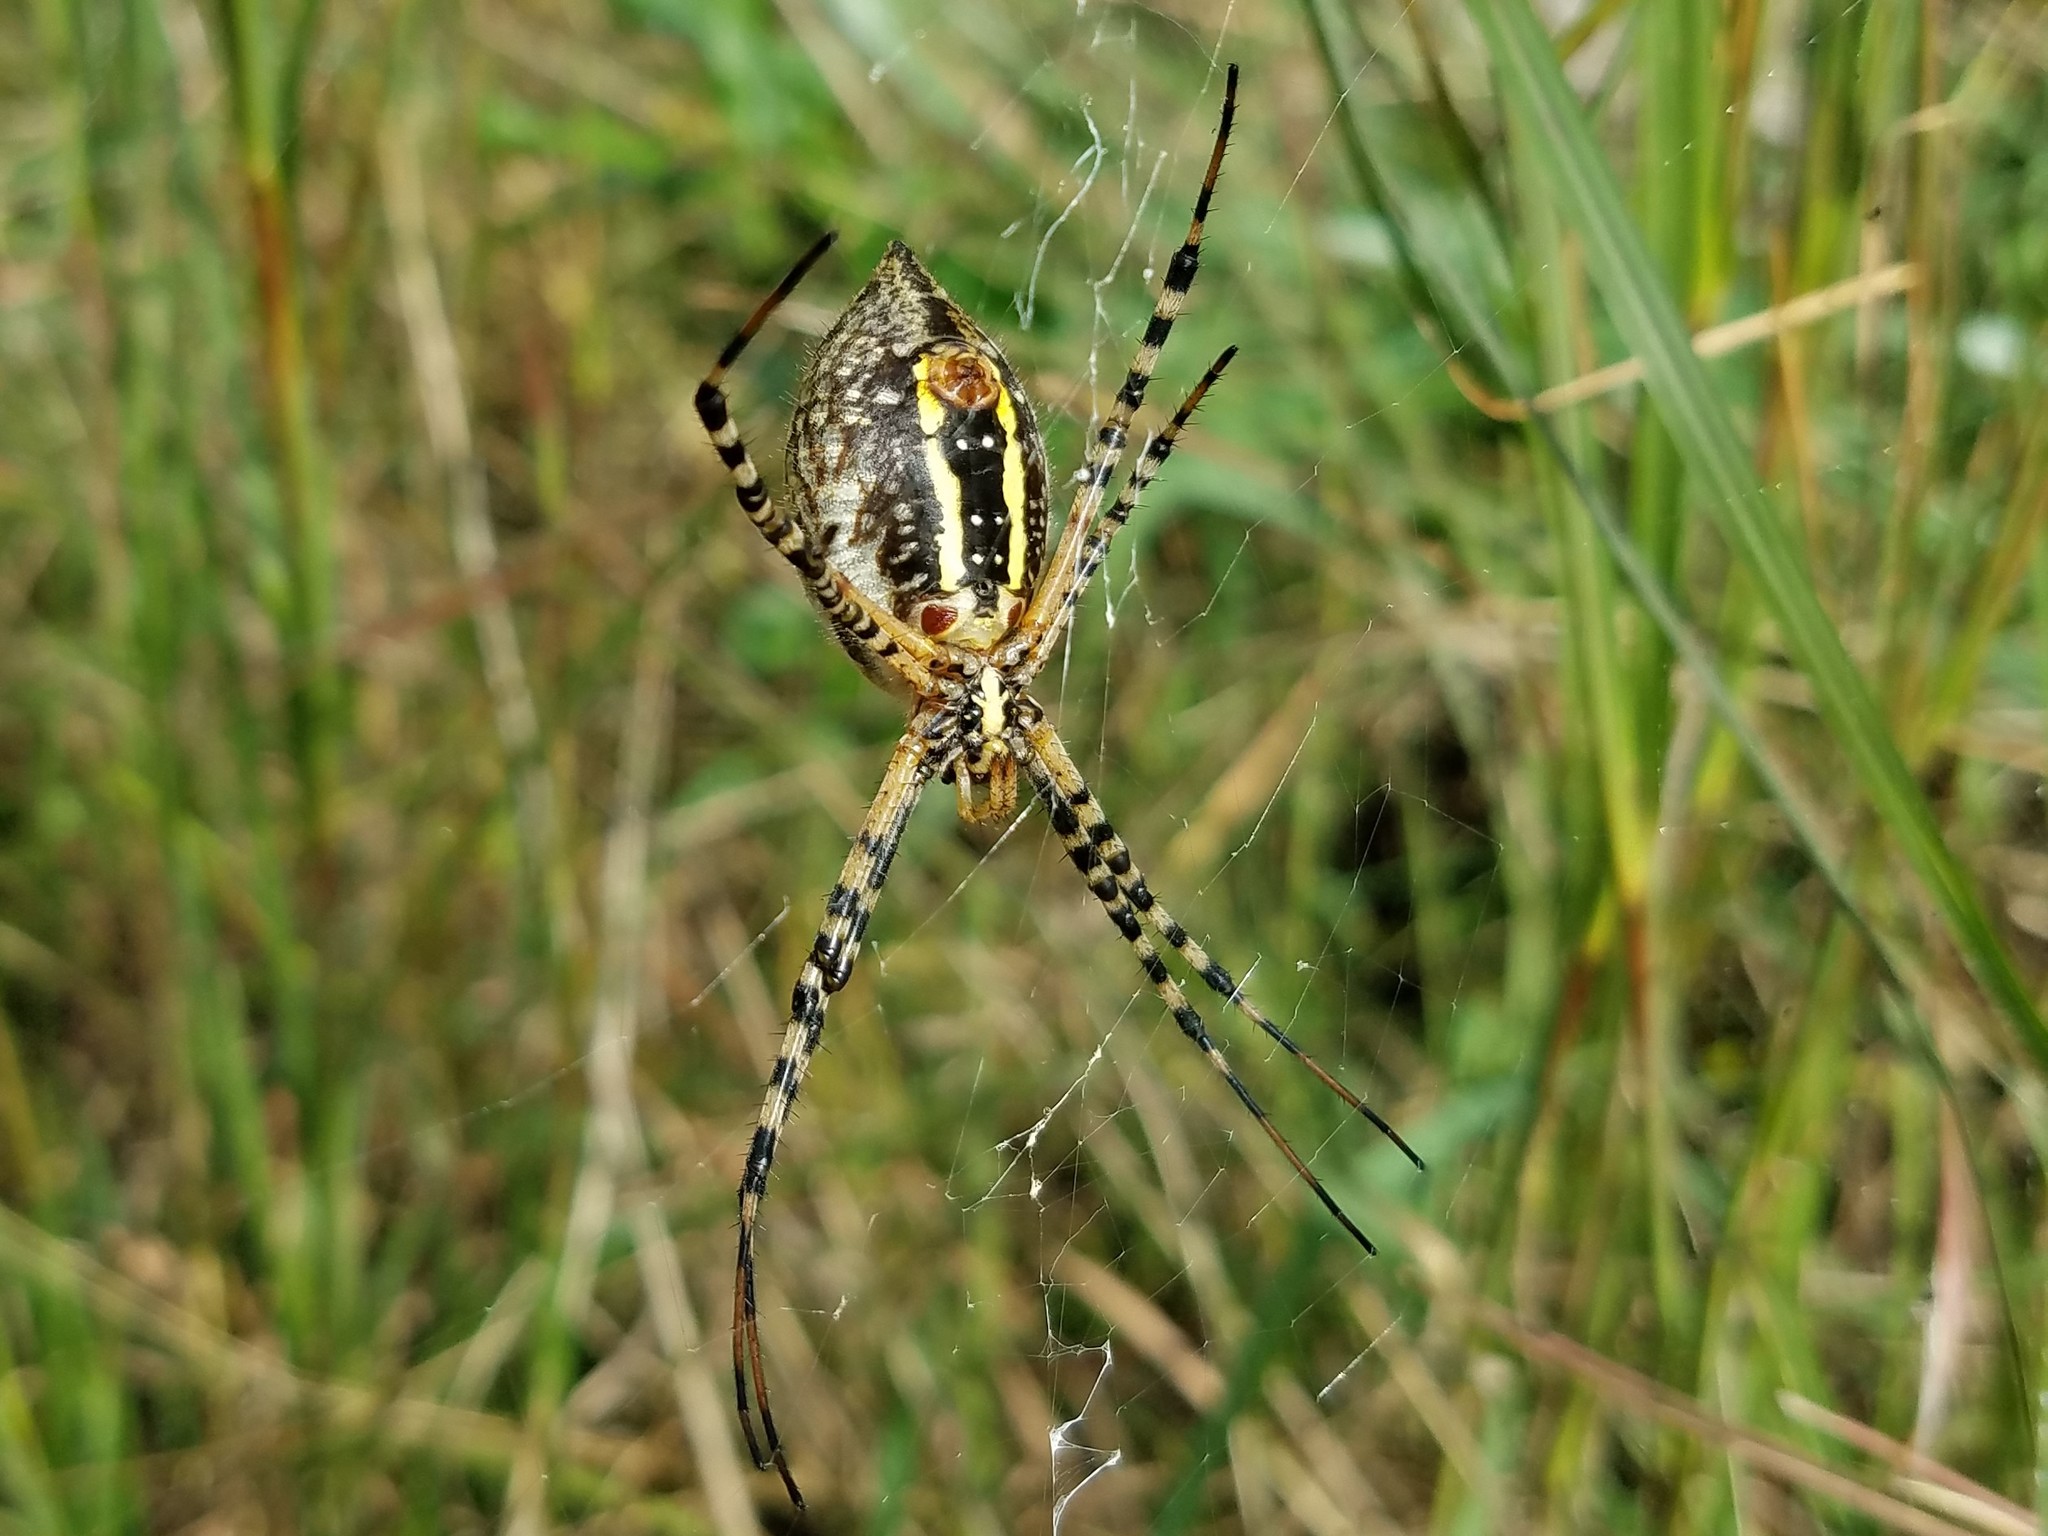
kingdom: Animalia
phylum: Arthropoda
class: Arachnida
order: Araneae
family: Araneidae
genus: Argiope
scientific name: Argiope trifasciata
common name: Banded garden spider
